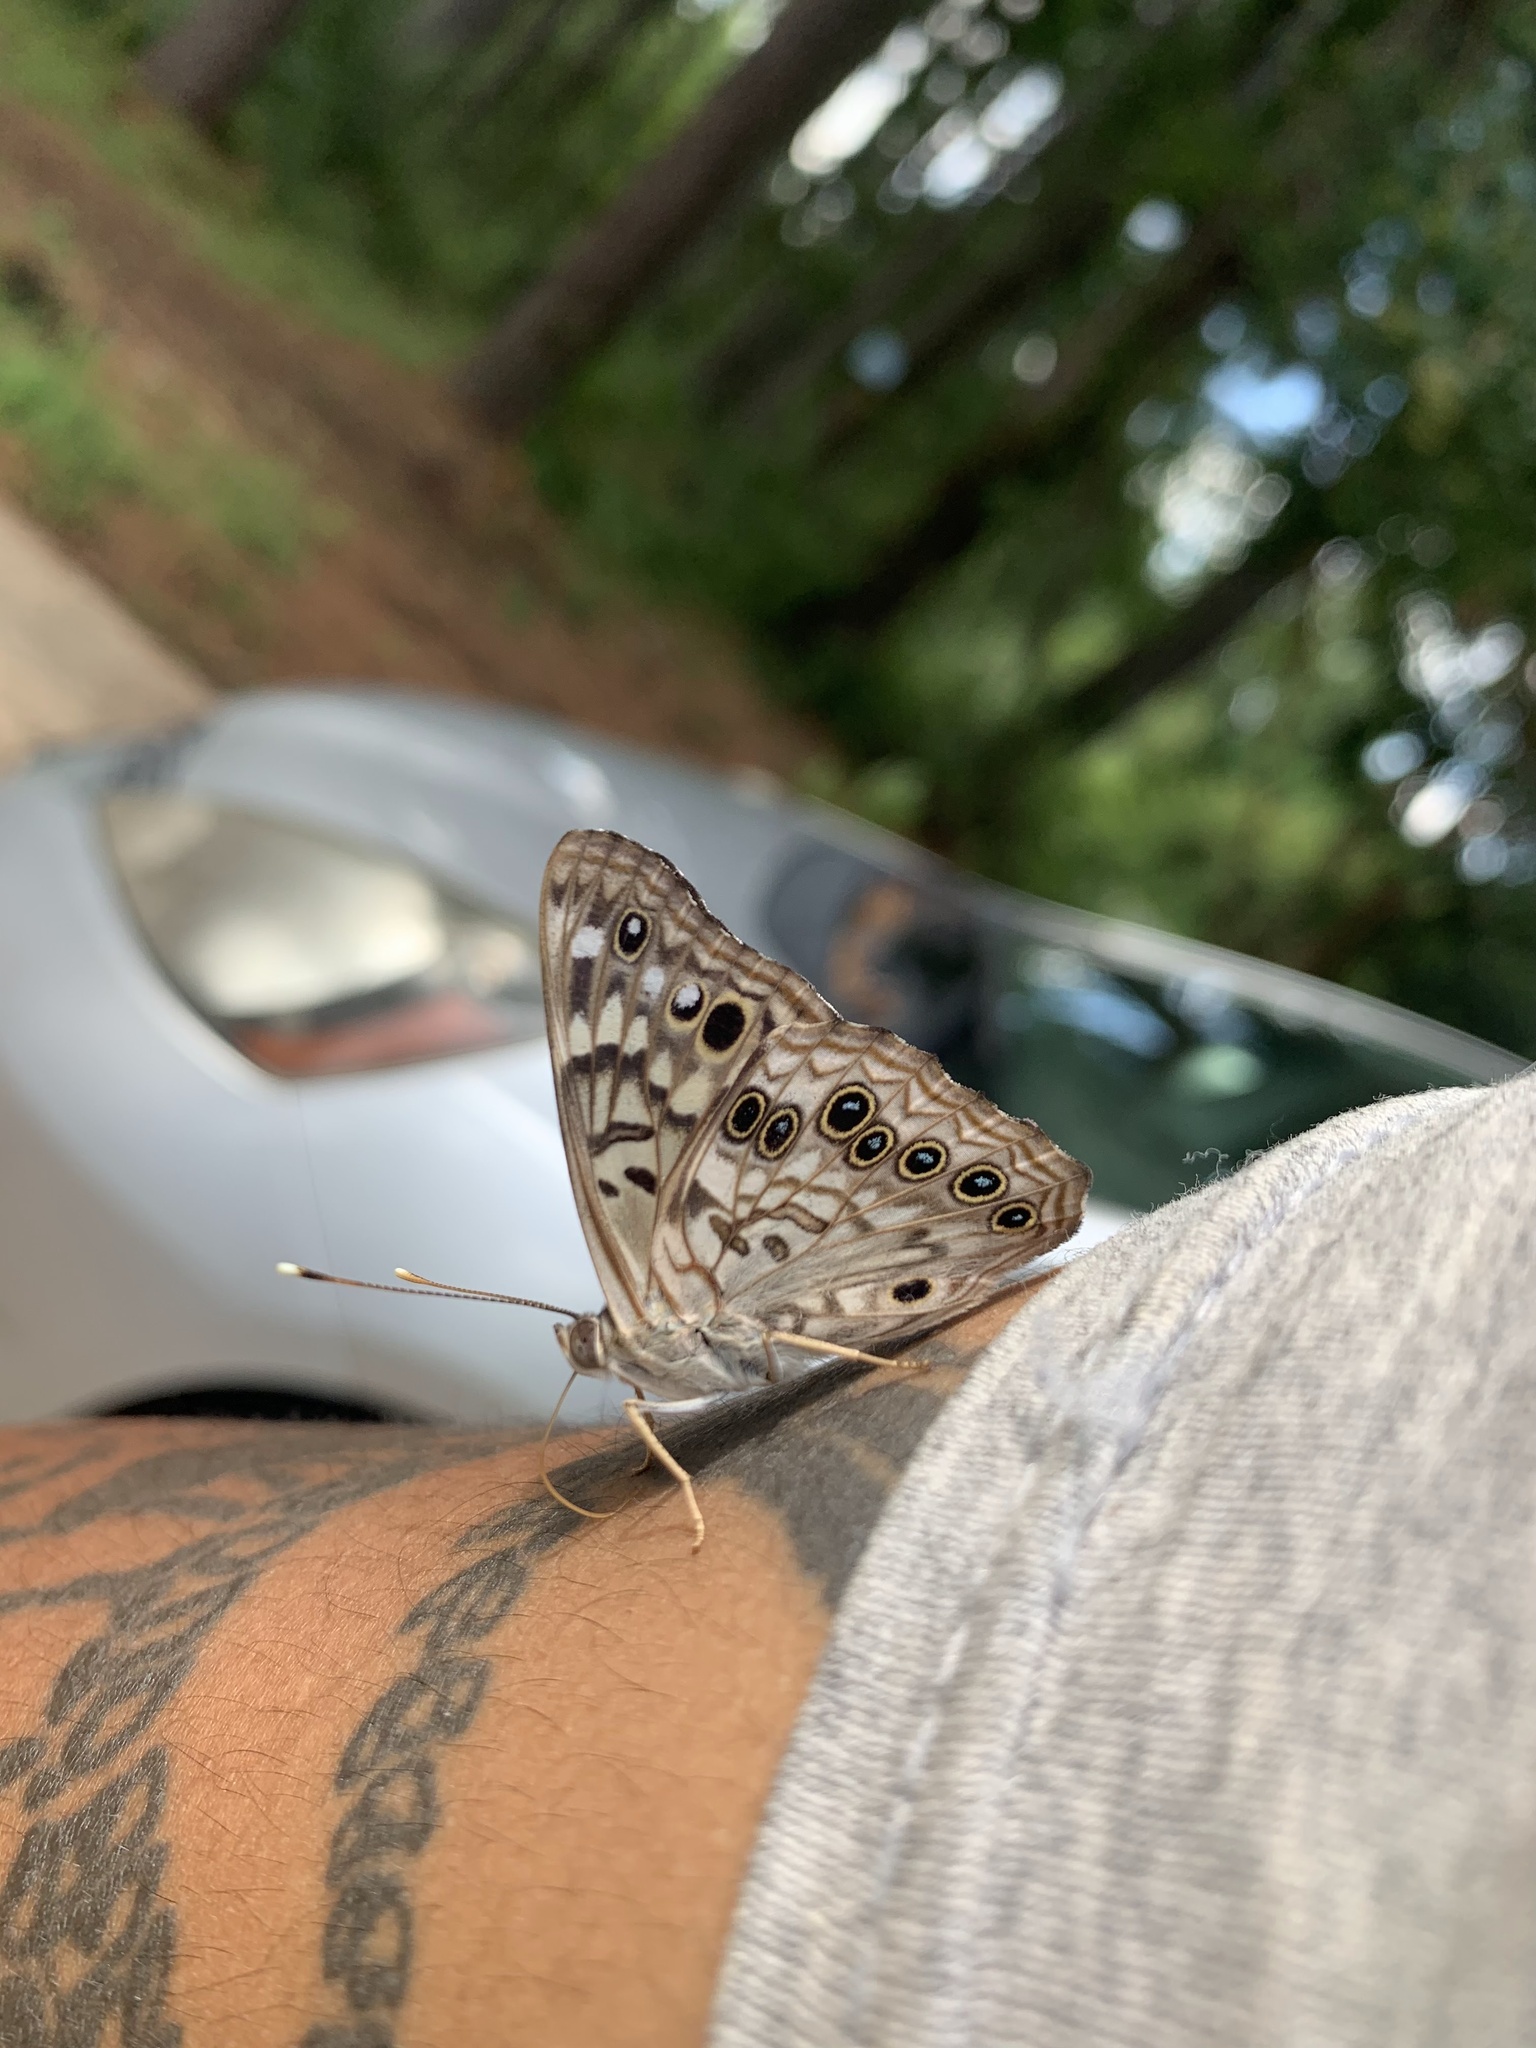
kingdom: Animalia
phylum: Arthropoda
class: Insecta
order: Lepidoptera
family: Nymphalidae
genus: Asterocampa
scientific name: Asterocampa celtis
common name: Hackberry emperor
